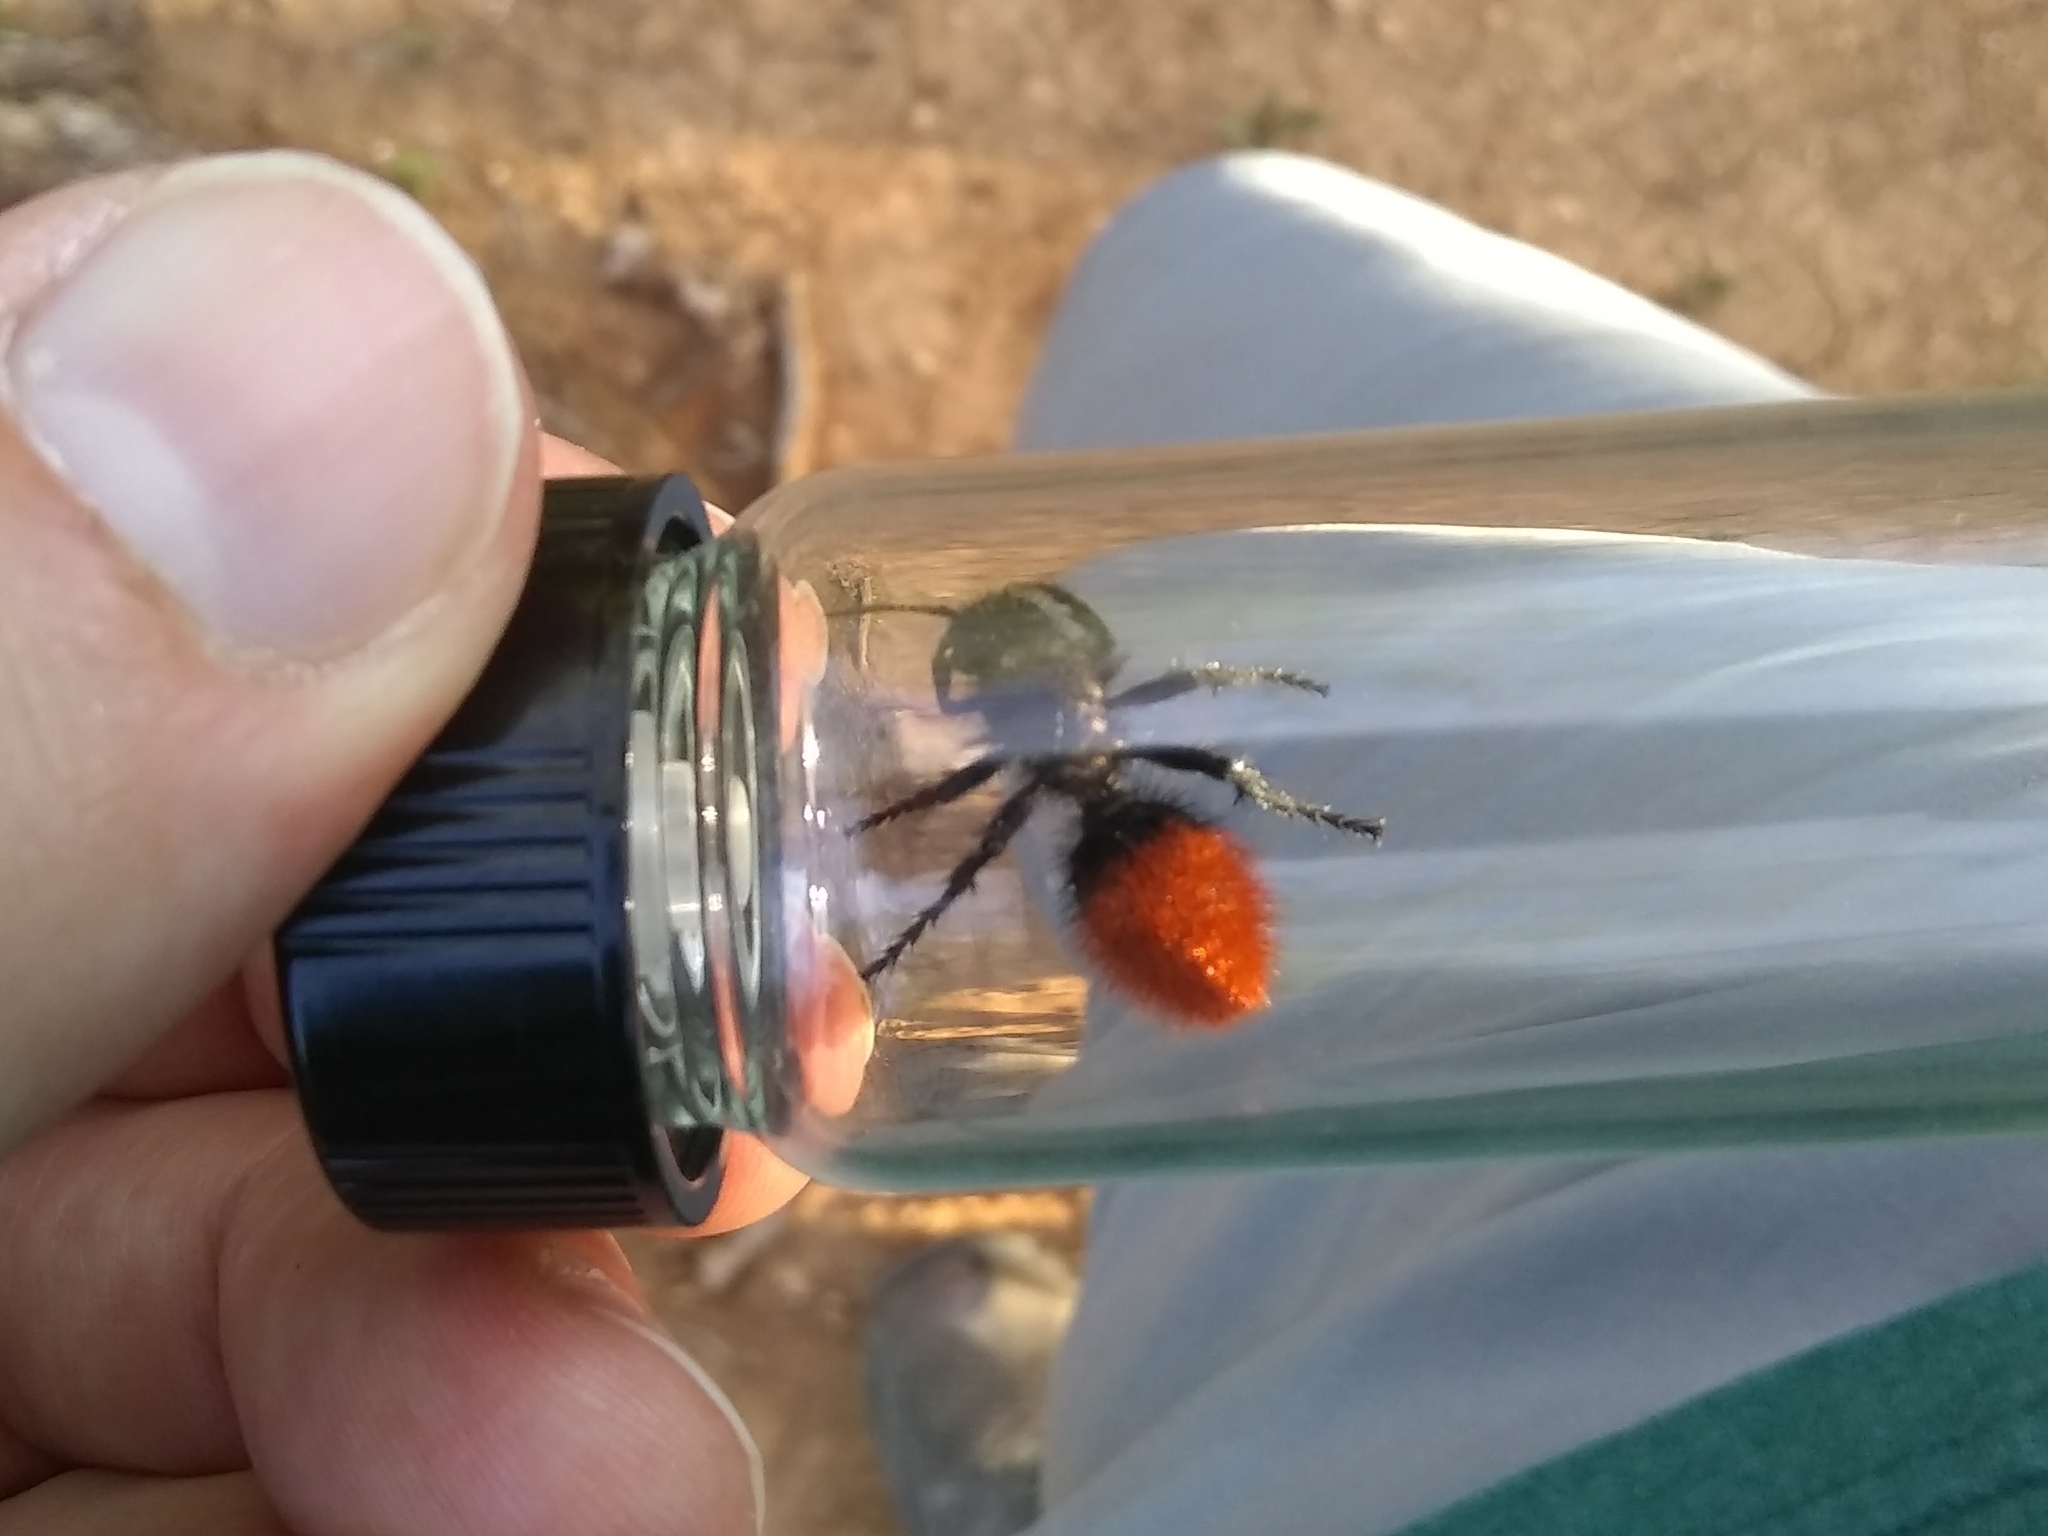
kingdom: Animalia
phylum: Arthropoda
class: Insecta
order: Hymenoptera
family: Mutillidae
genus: Dasymutilla
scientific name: Dasymutilla
